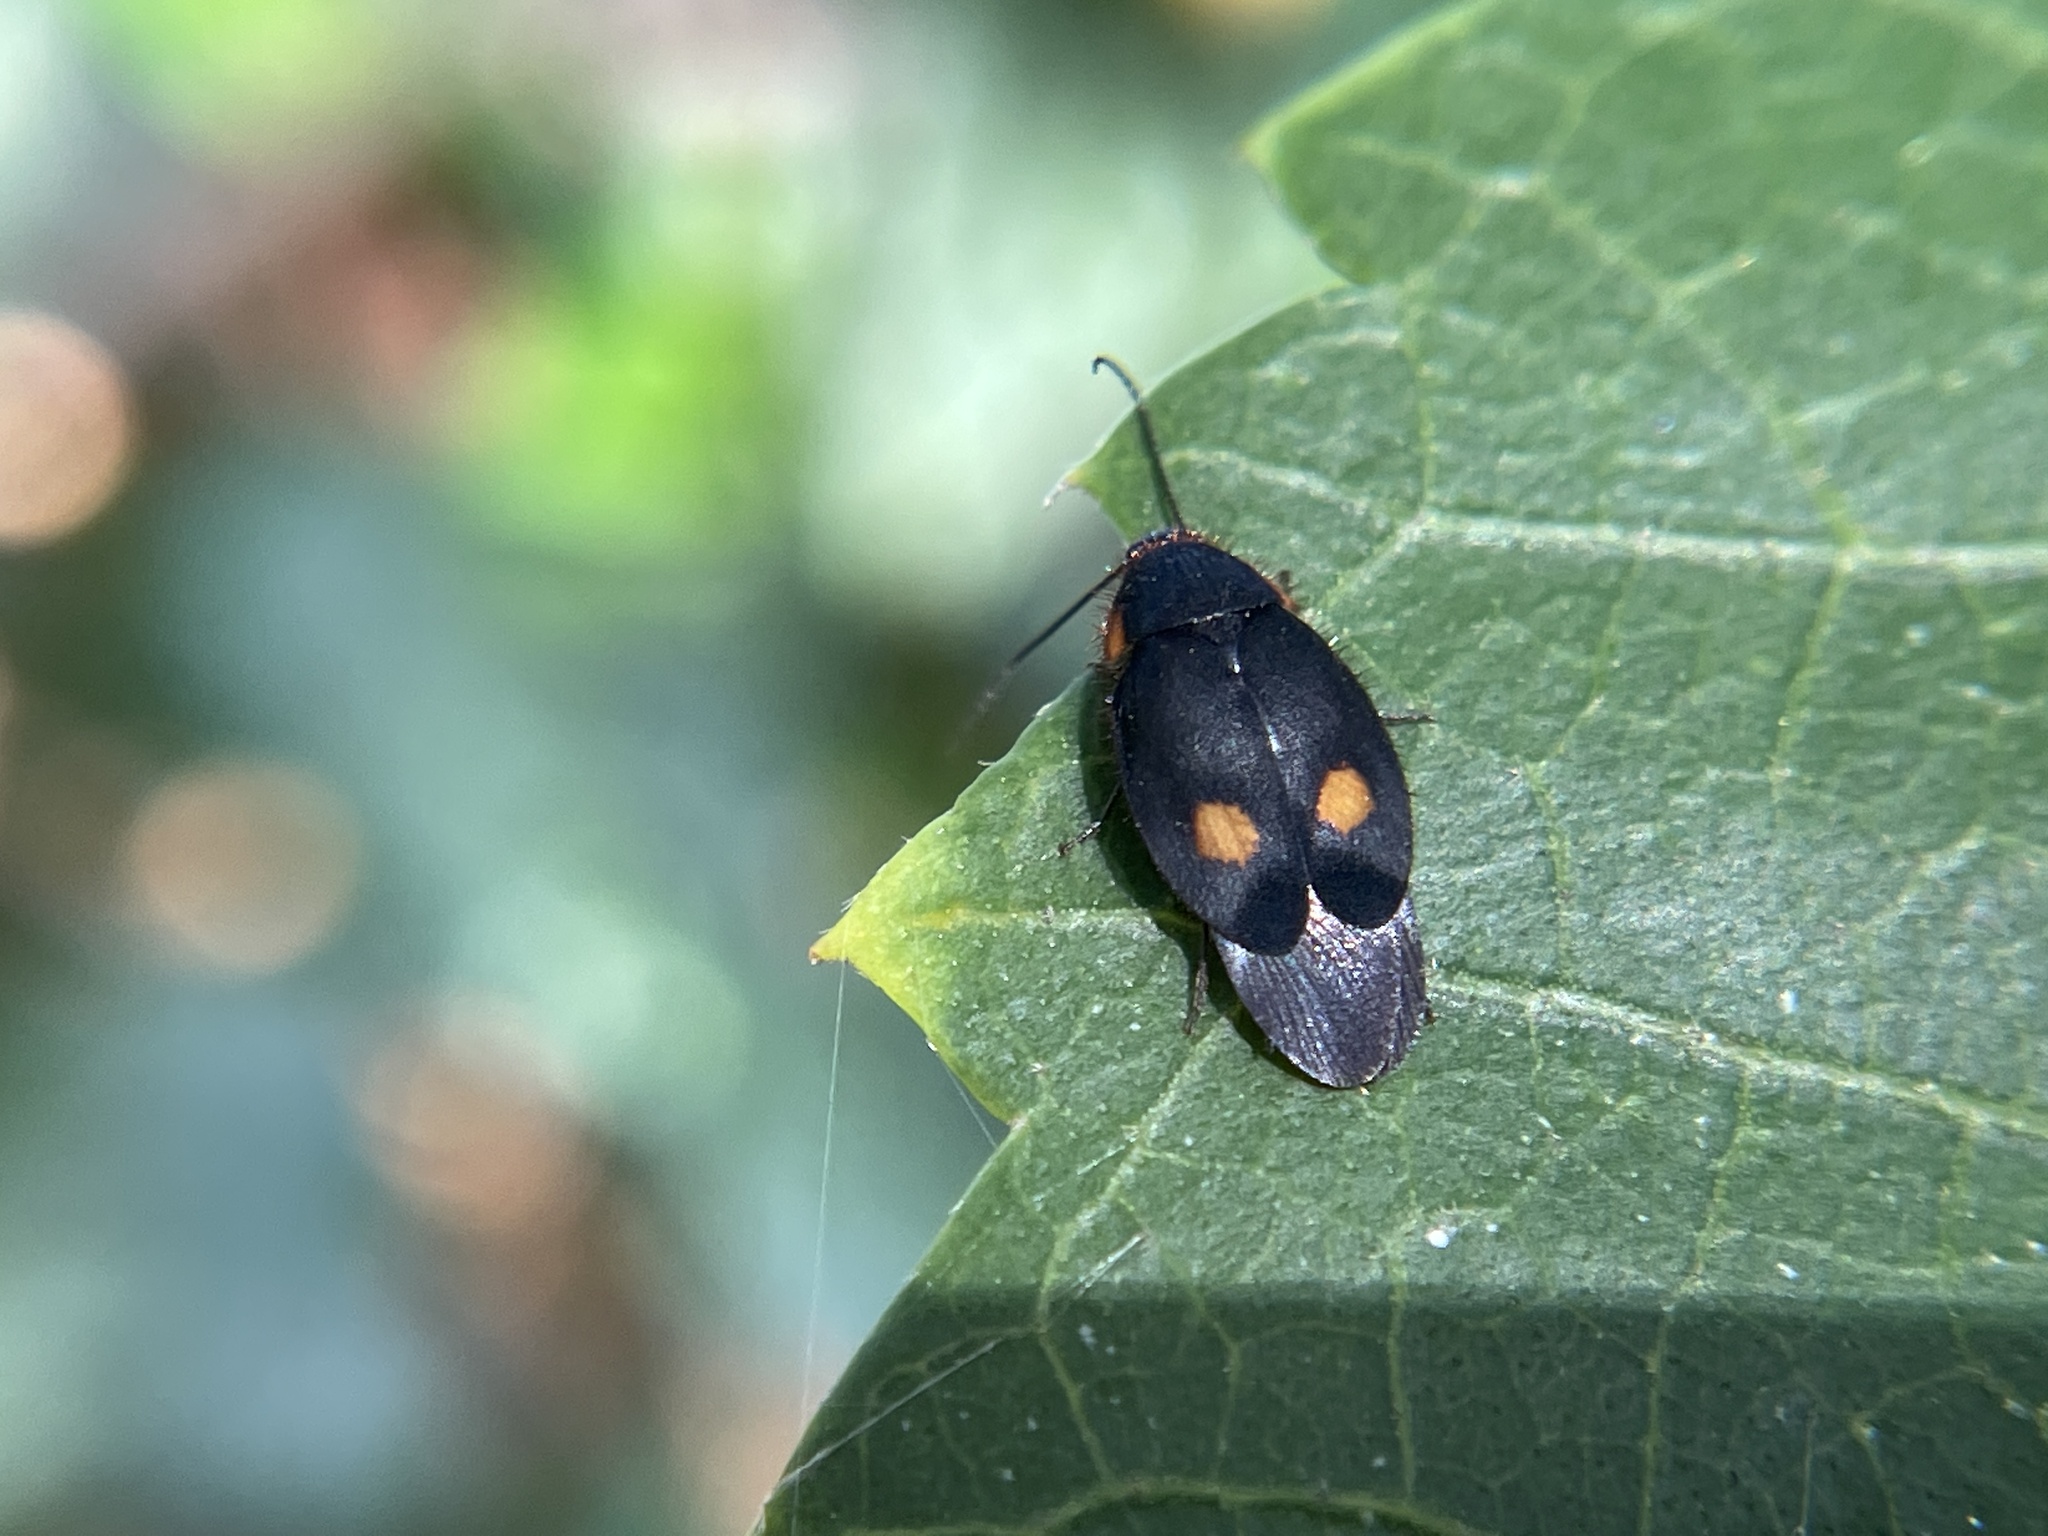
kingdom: Animalia
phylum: Arthropoda
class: Insecta
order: Blattodea
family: Corydiidae
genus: Euthyrrhapha
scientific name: Euthyrrhapha pacifica
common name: Pacific cockroach
